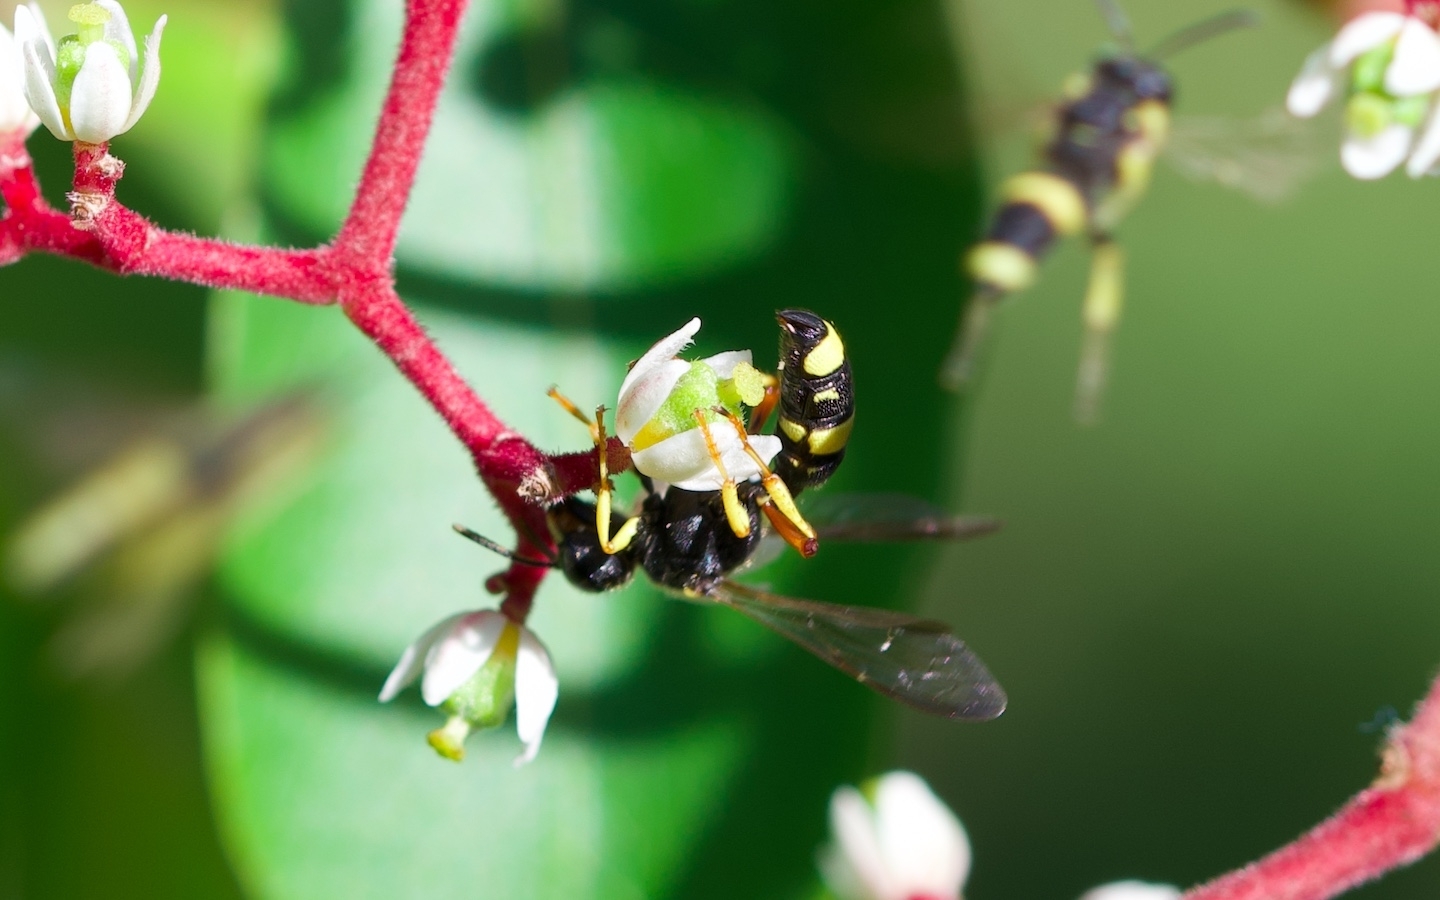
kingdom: Animalia
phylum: Arthropoda
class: Insecta
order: Hymenoptera
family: Crabronidae
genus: Cerceris
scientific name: Cerceris rybyensis
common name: Ornate tailed digger wasp
